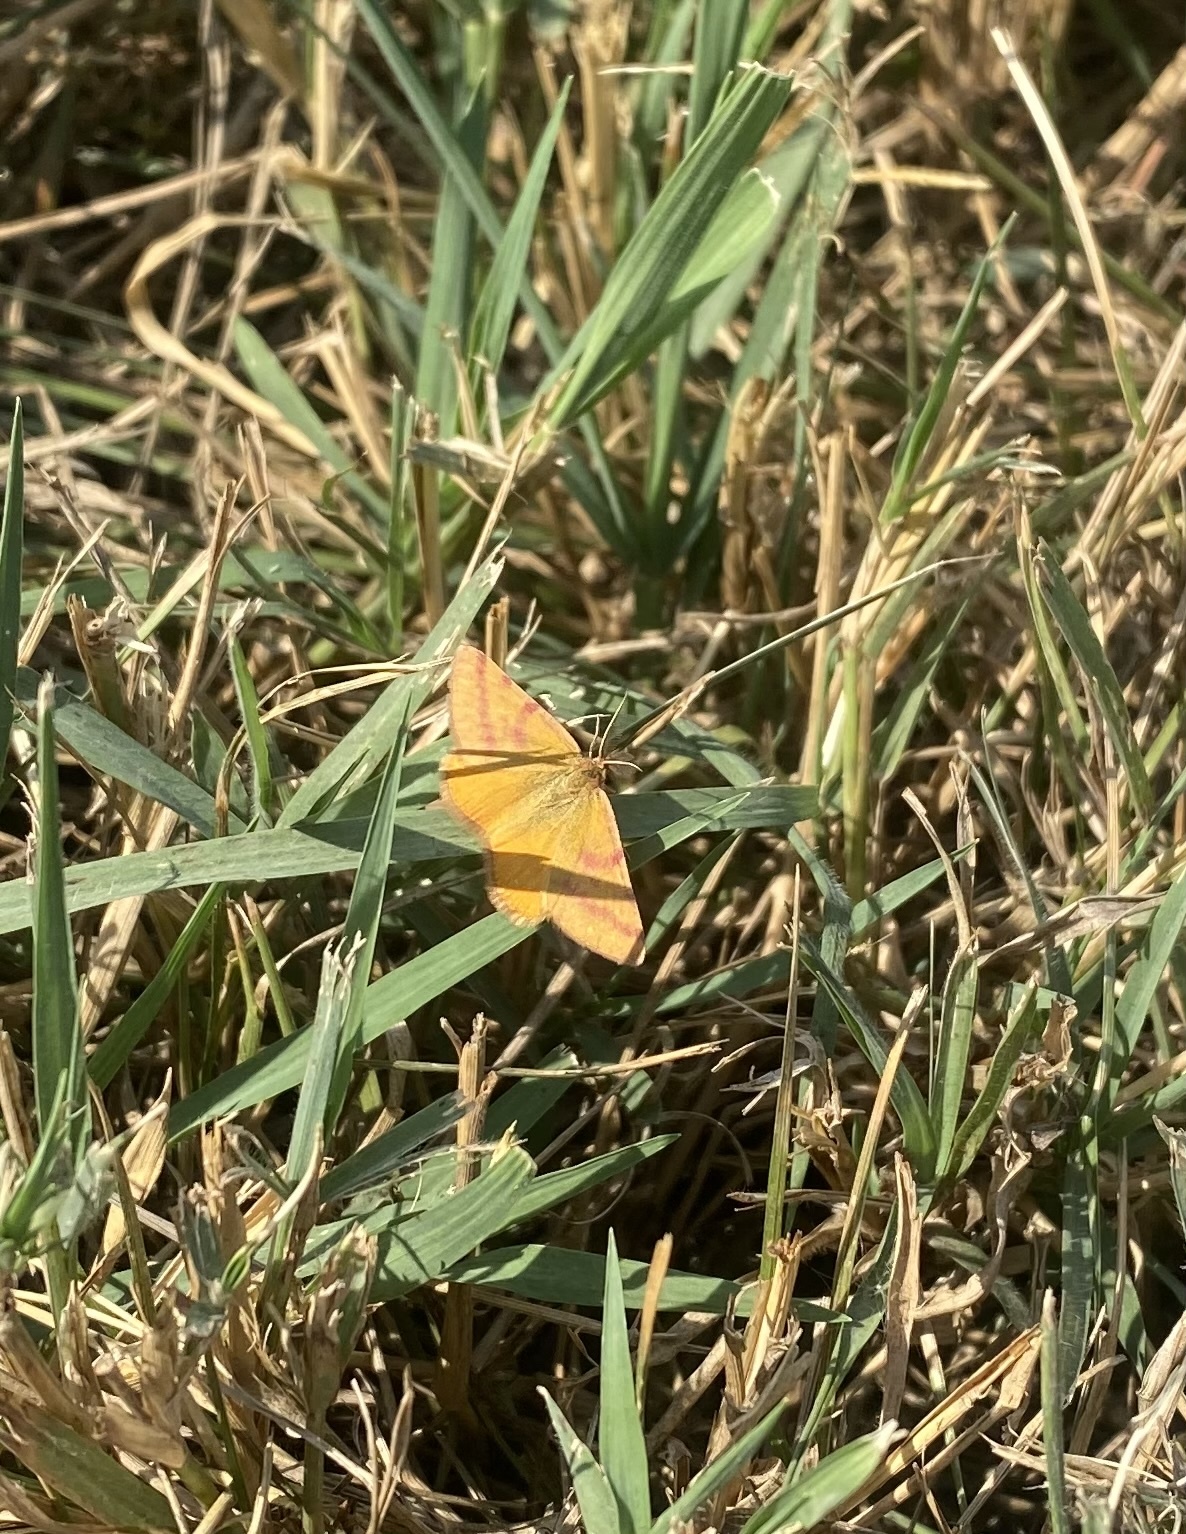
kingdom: Animalia
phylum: Arthropoda
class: Insecta
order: Lepidoptera
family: Geometridae
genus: Lythria
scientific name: Lythria purpuraria
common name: Purple-barred yellow
